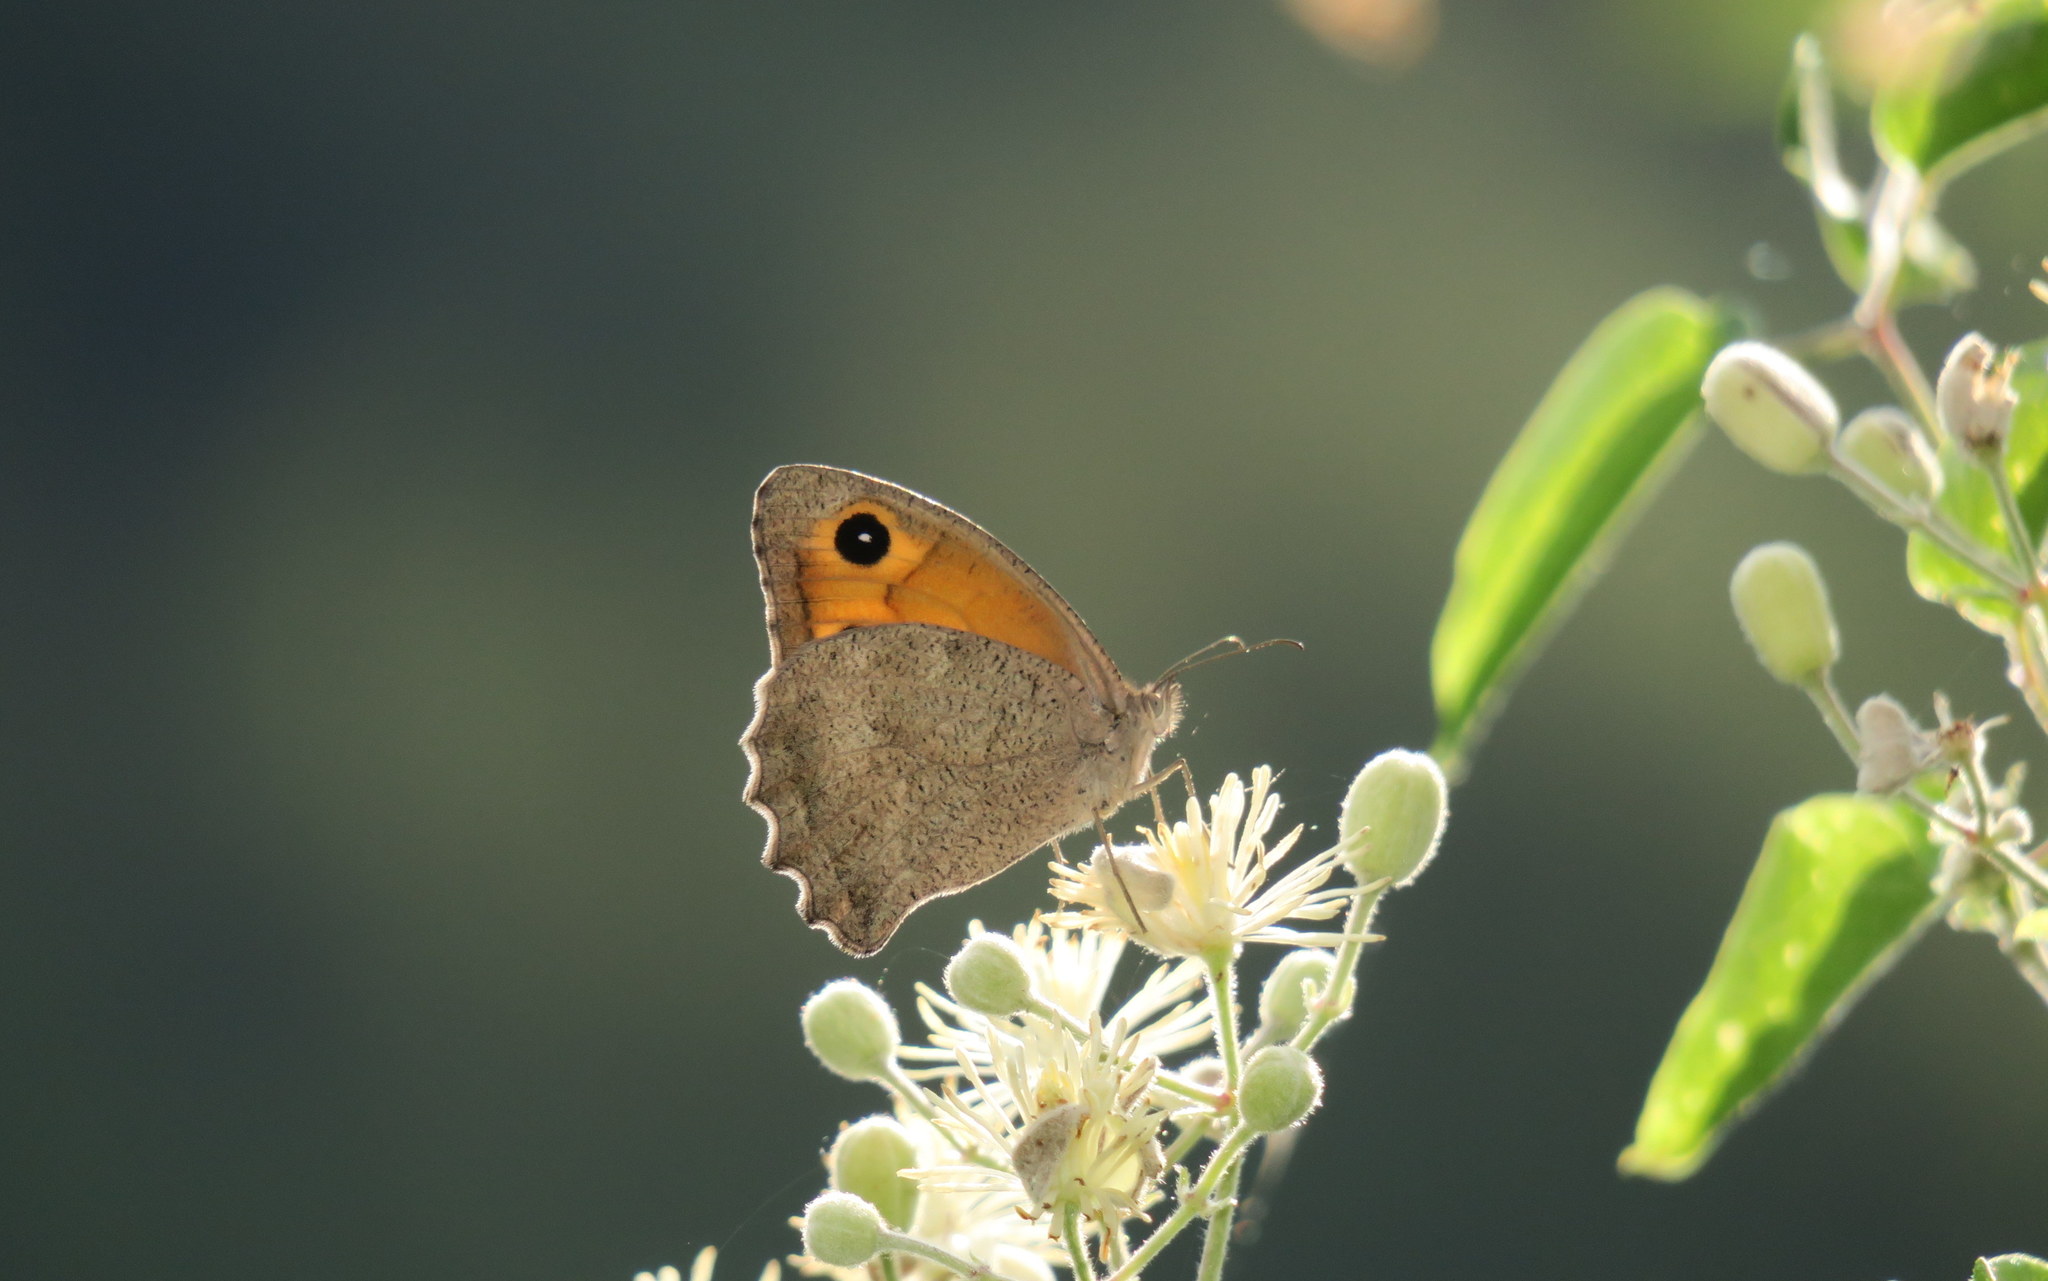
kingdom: Animalia
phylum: Arthropoda
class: Insecta
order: Lepidoptera
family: Nymphalidae
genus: Hyponephele
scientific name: Hyponephele lupinus
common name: Oriental meadow brown
